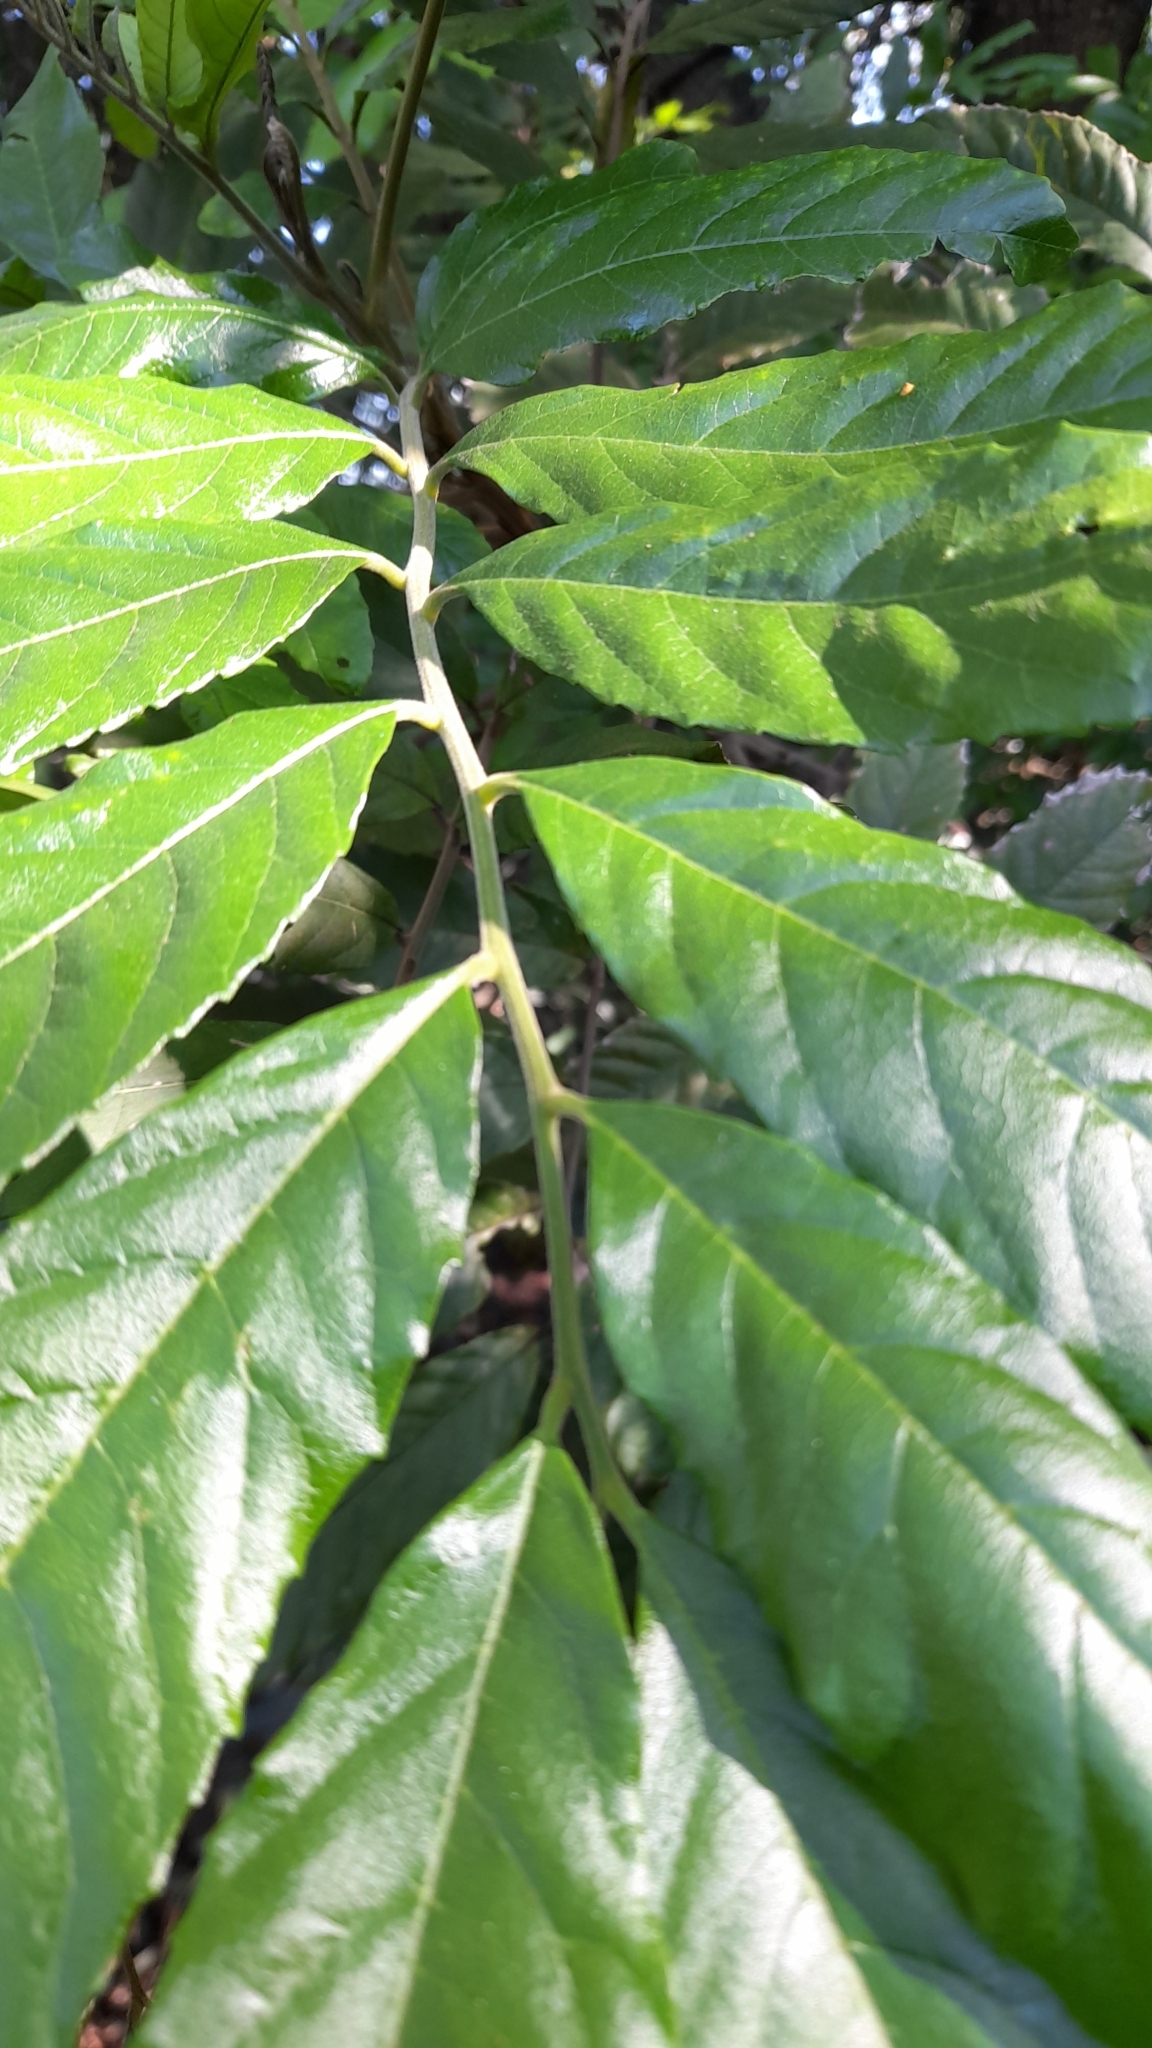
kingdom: Plantae
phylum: Tracheophyta
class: Magnoliopsida
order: Sapindales
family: Sapindaceae
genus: Cupania
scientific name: Cupania vernalis
